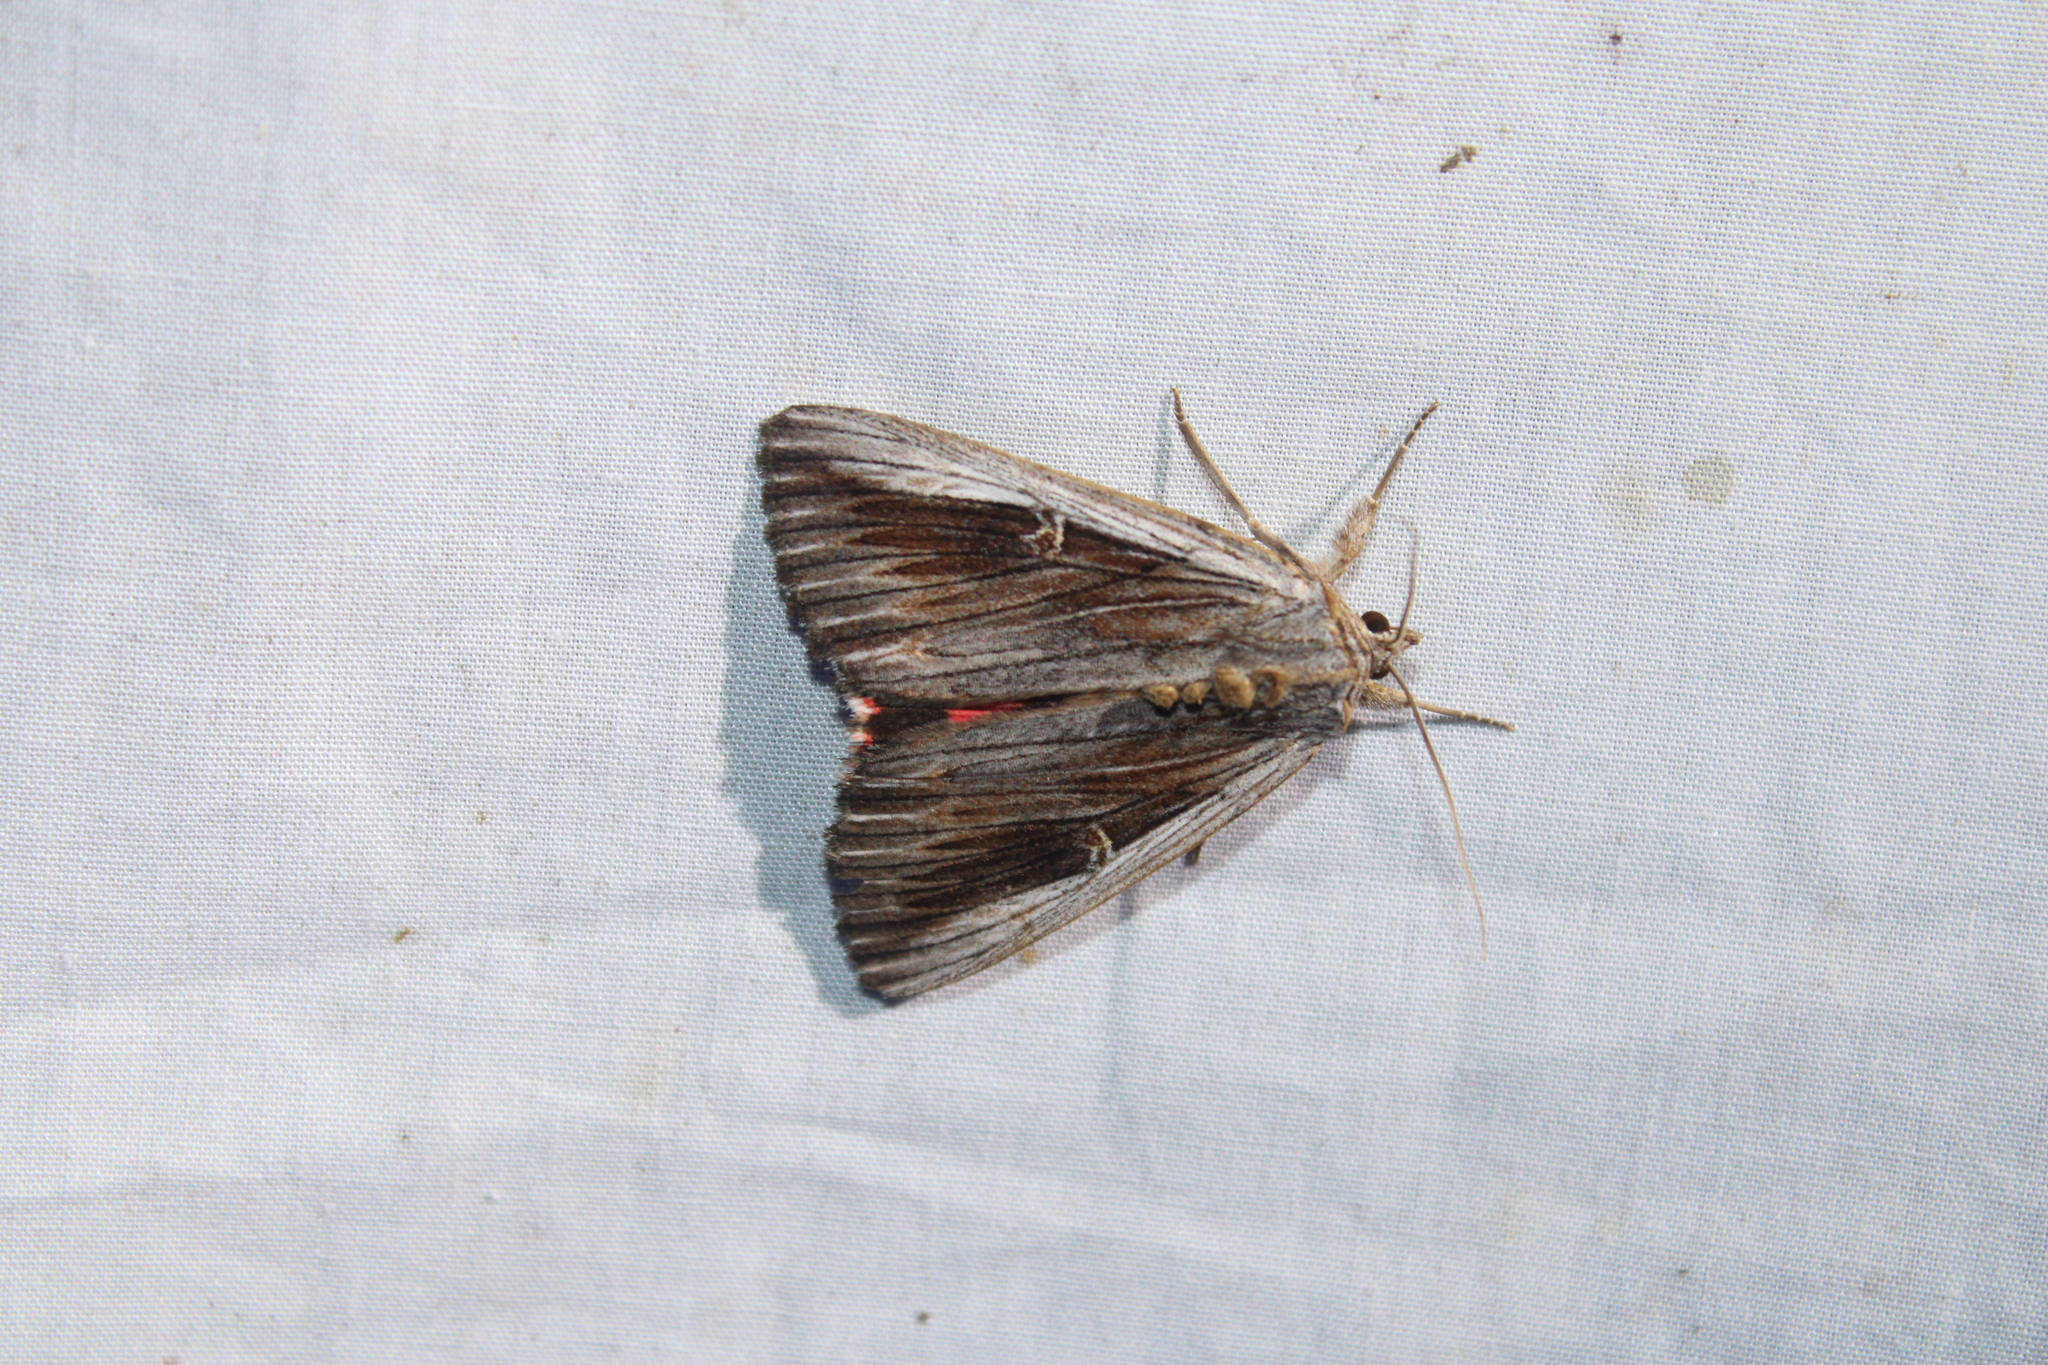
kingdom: Animalia
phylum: Arthropoda
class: Insecta
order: Lepidoptera
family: Erebidae
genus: Catocala
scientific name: Catocala herodias
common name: Pine barrens underwing
